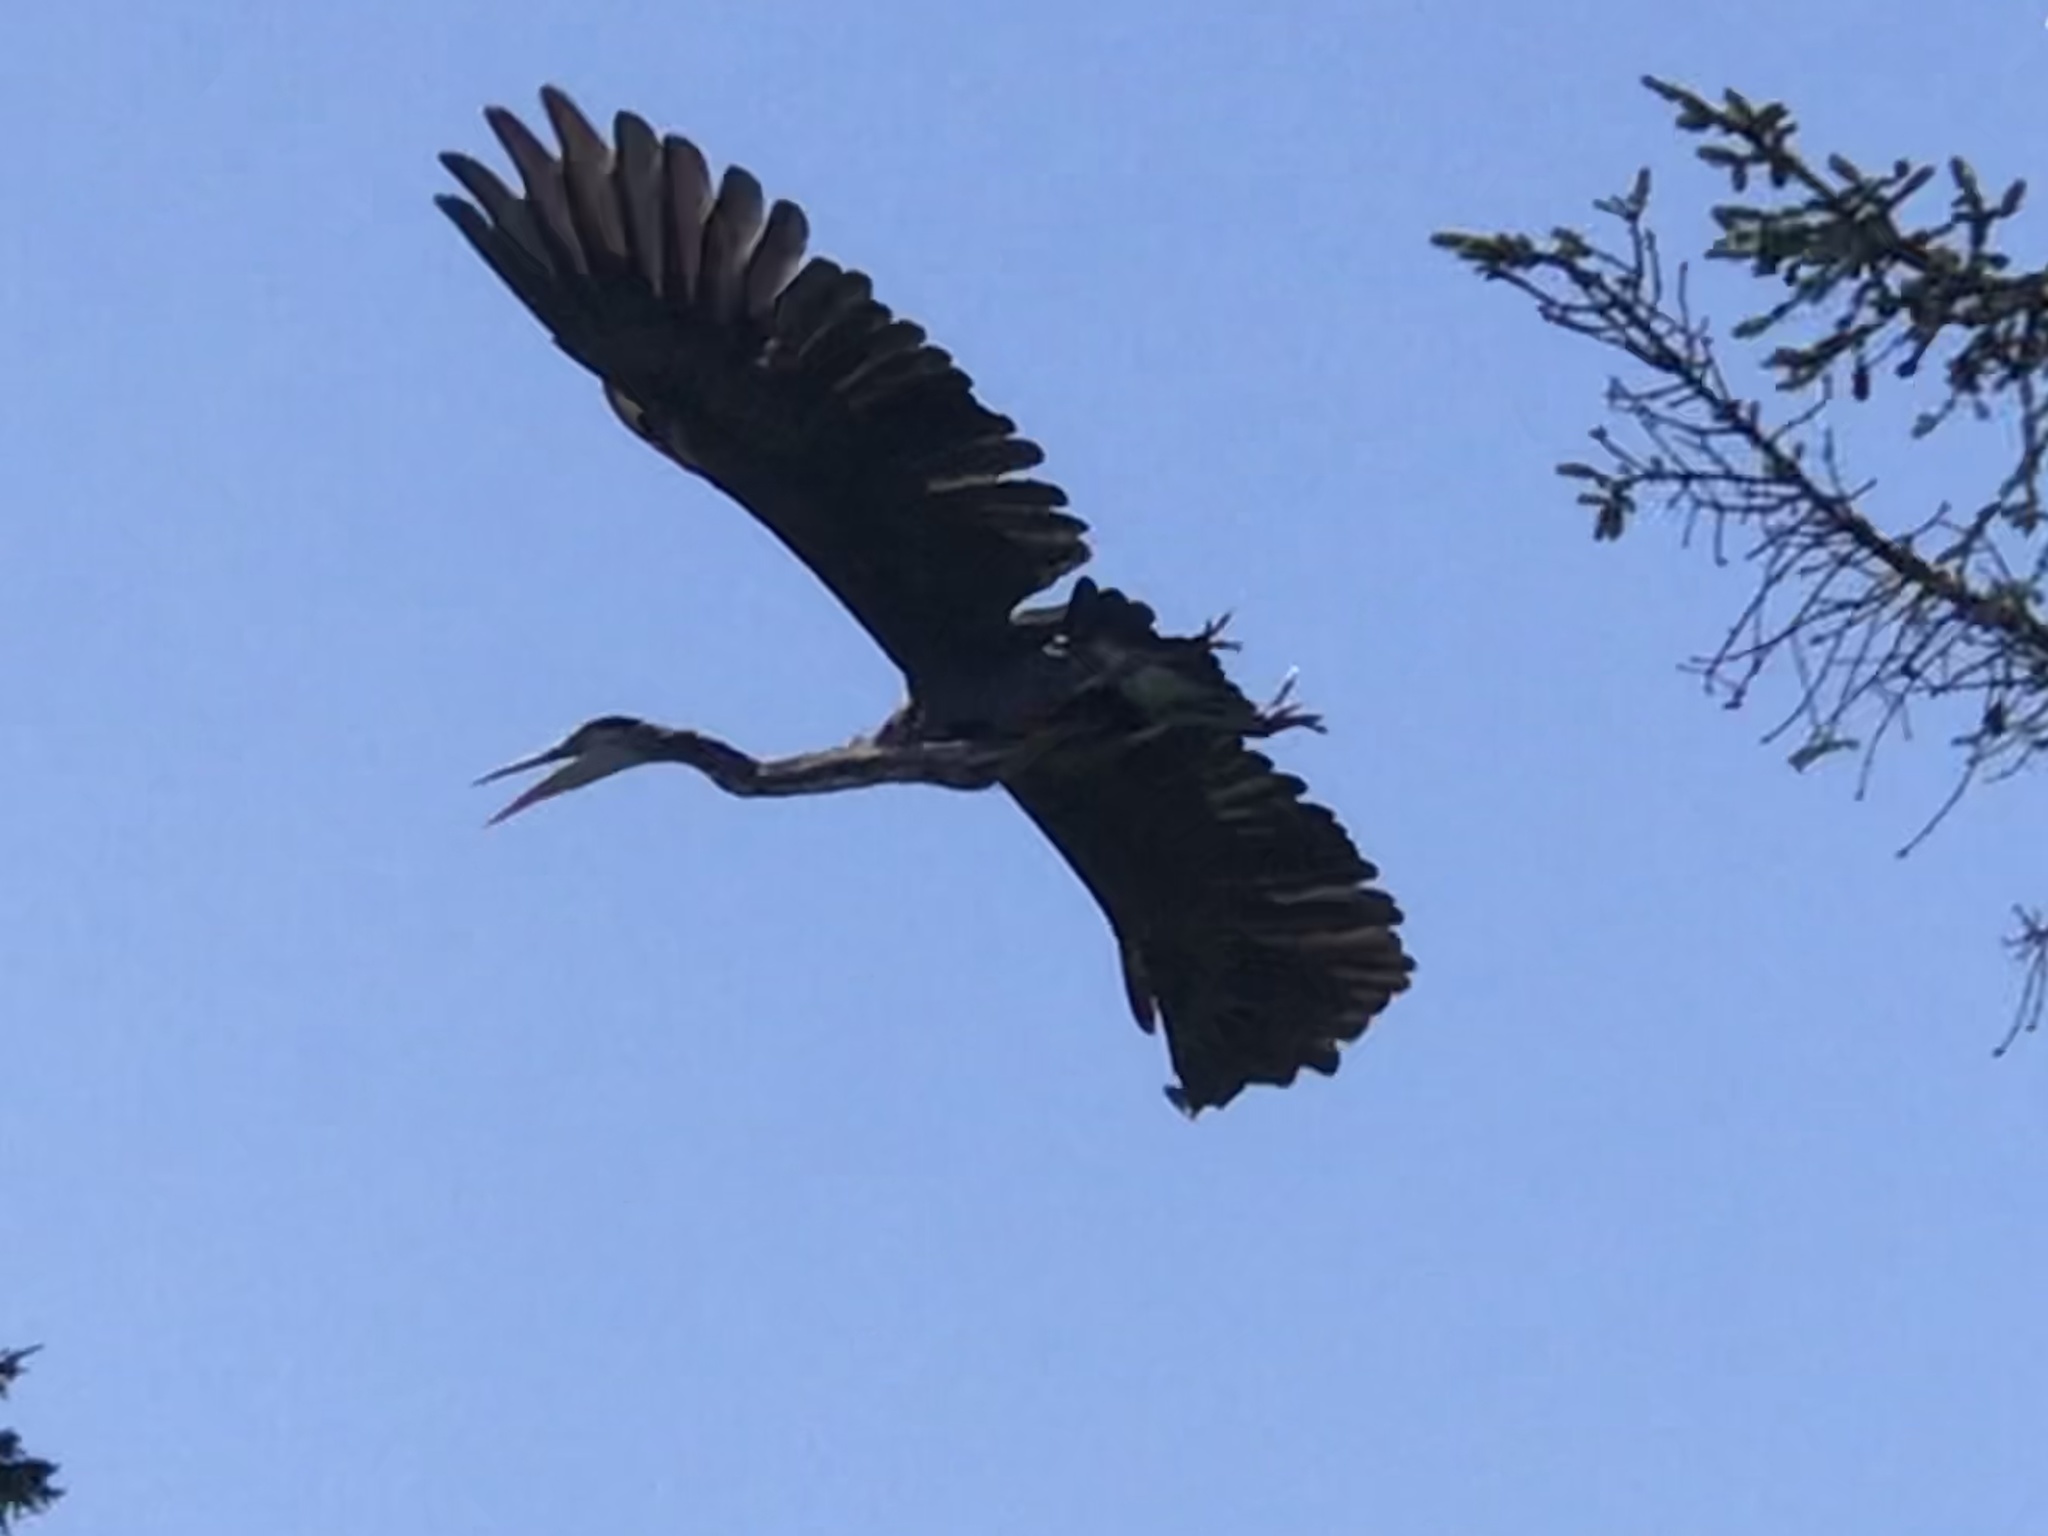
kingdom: Animalia
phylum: Chordata
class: Aves
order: Pelecaniformes
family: Ardeidae
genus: Ardea
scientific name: Ardea herodias
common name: Great blue heron
